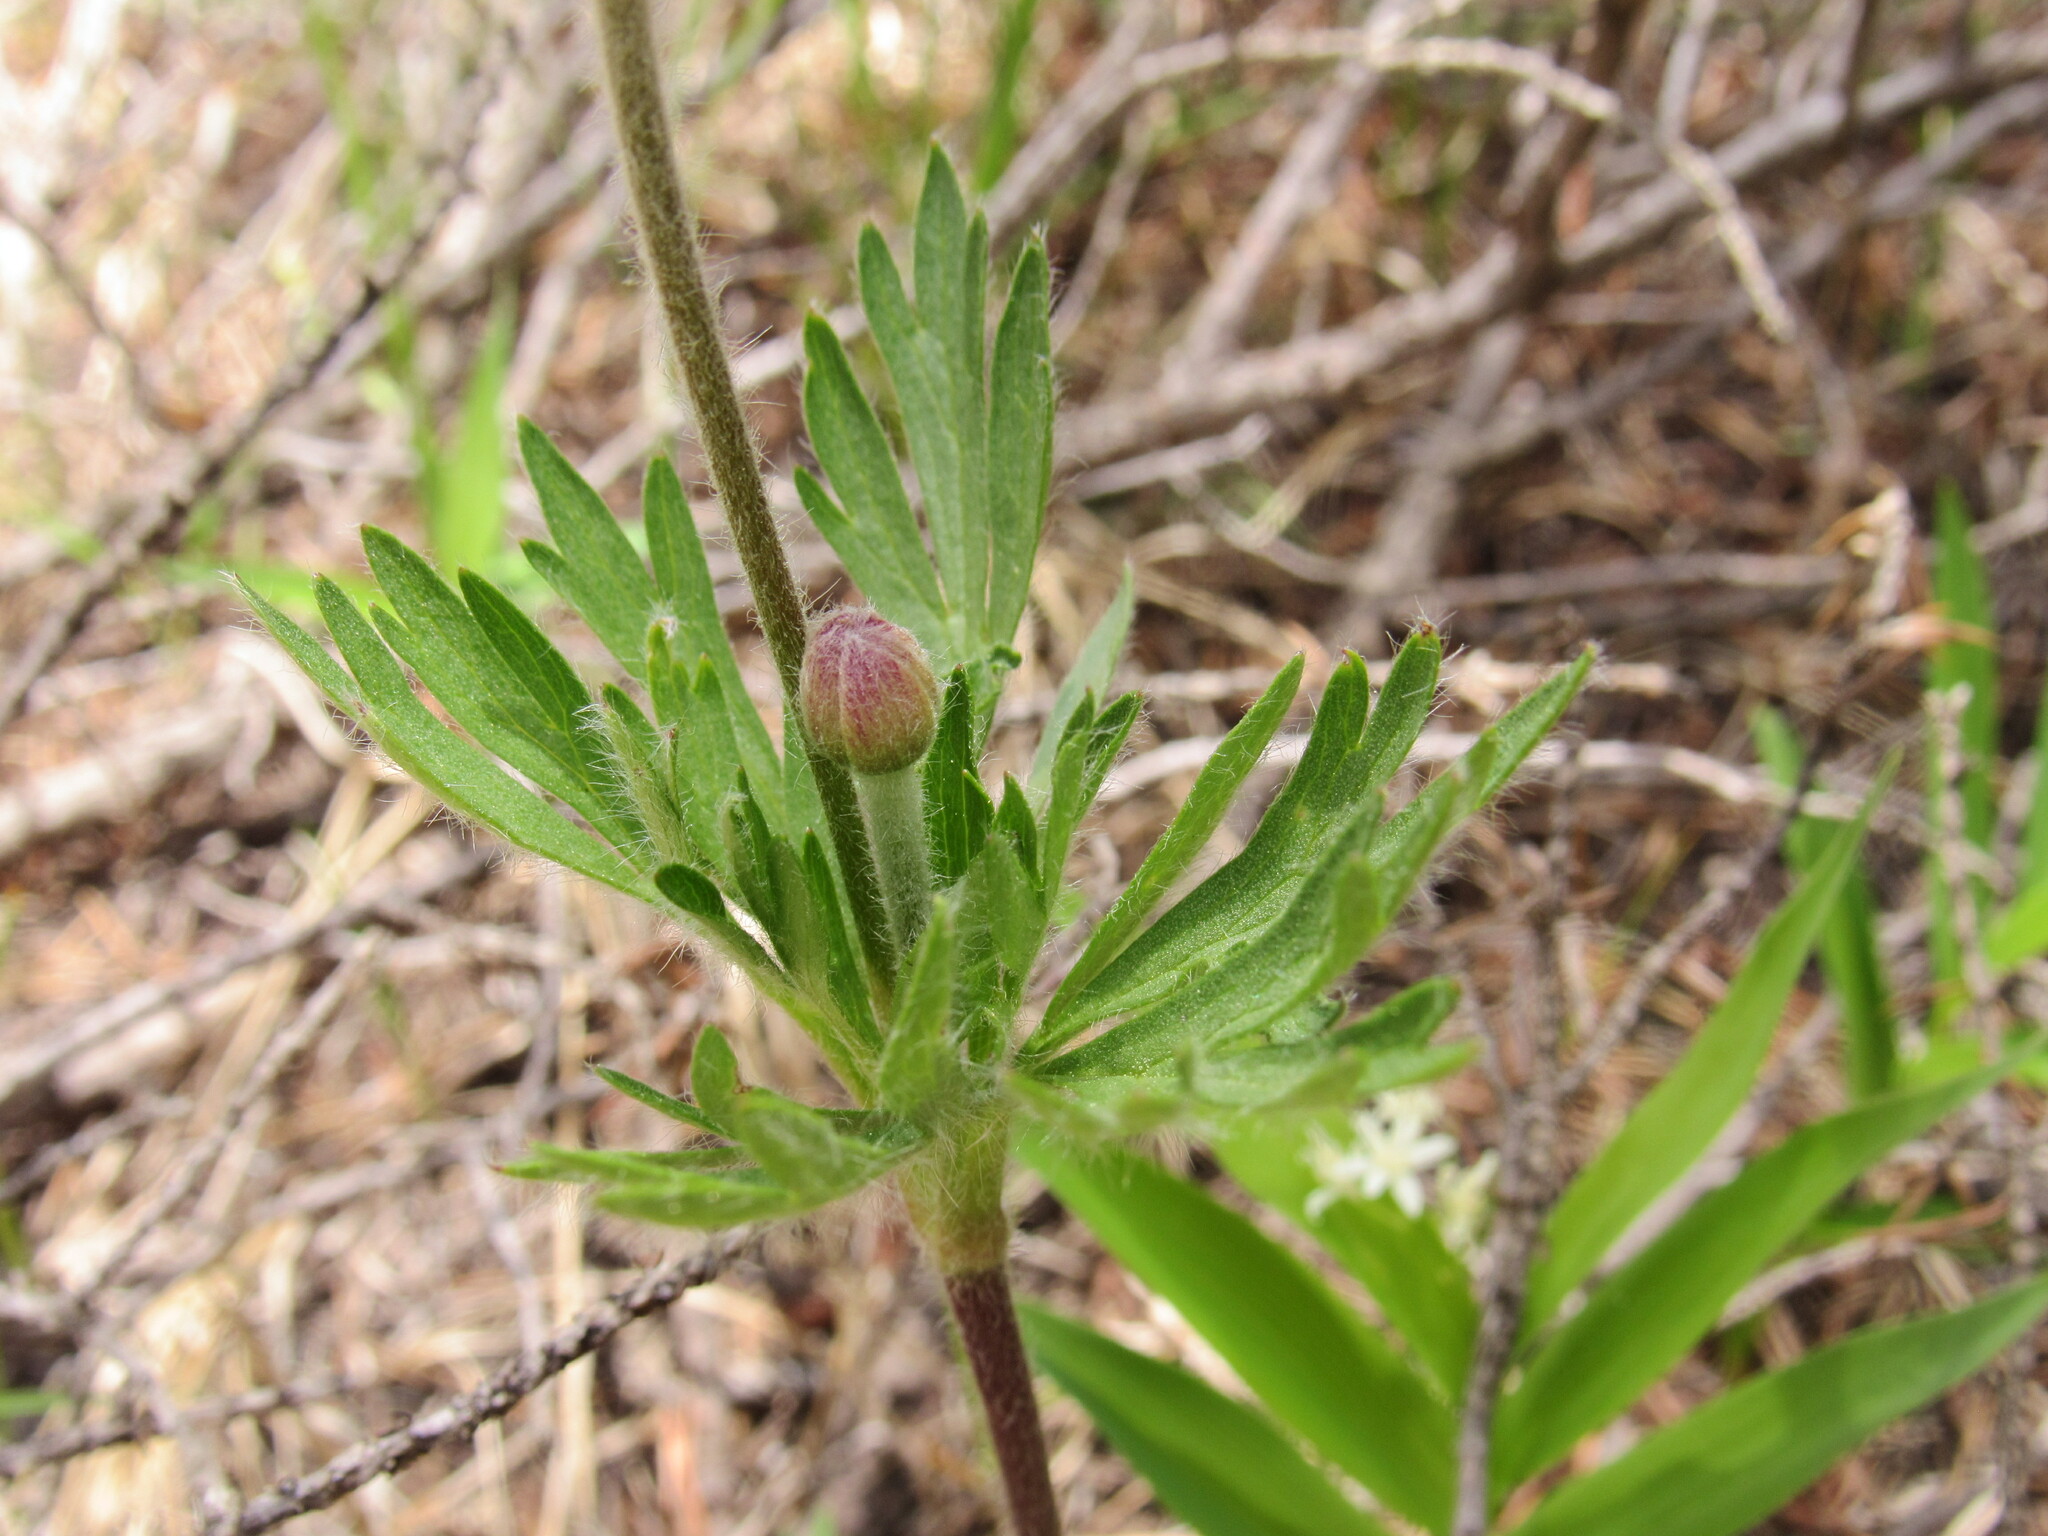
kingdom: Plantae
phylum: Tracheophyta
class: Magnoliopsida
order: Ranunculales
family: Ranunculaceae
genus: Anemone
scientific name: Anemone multifida
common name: Bird's-foot anemone
